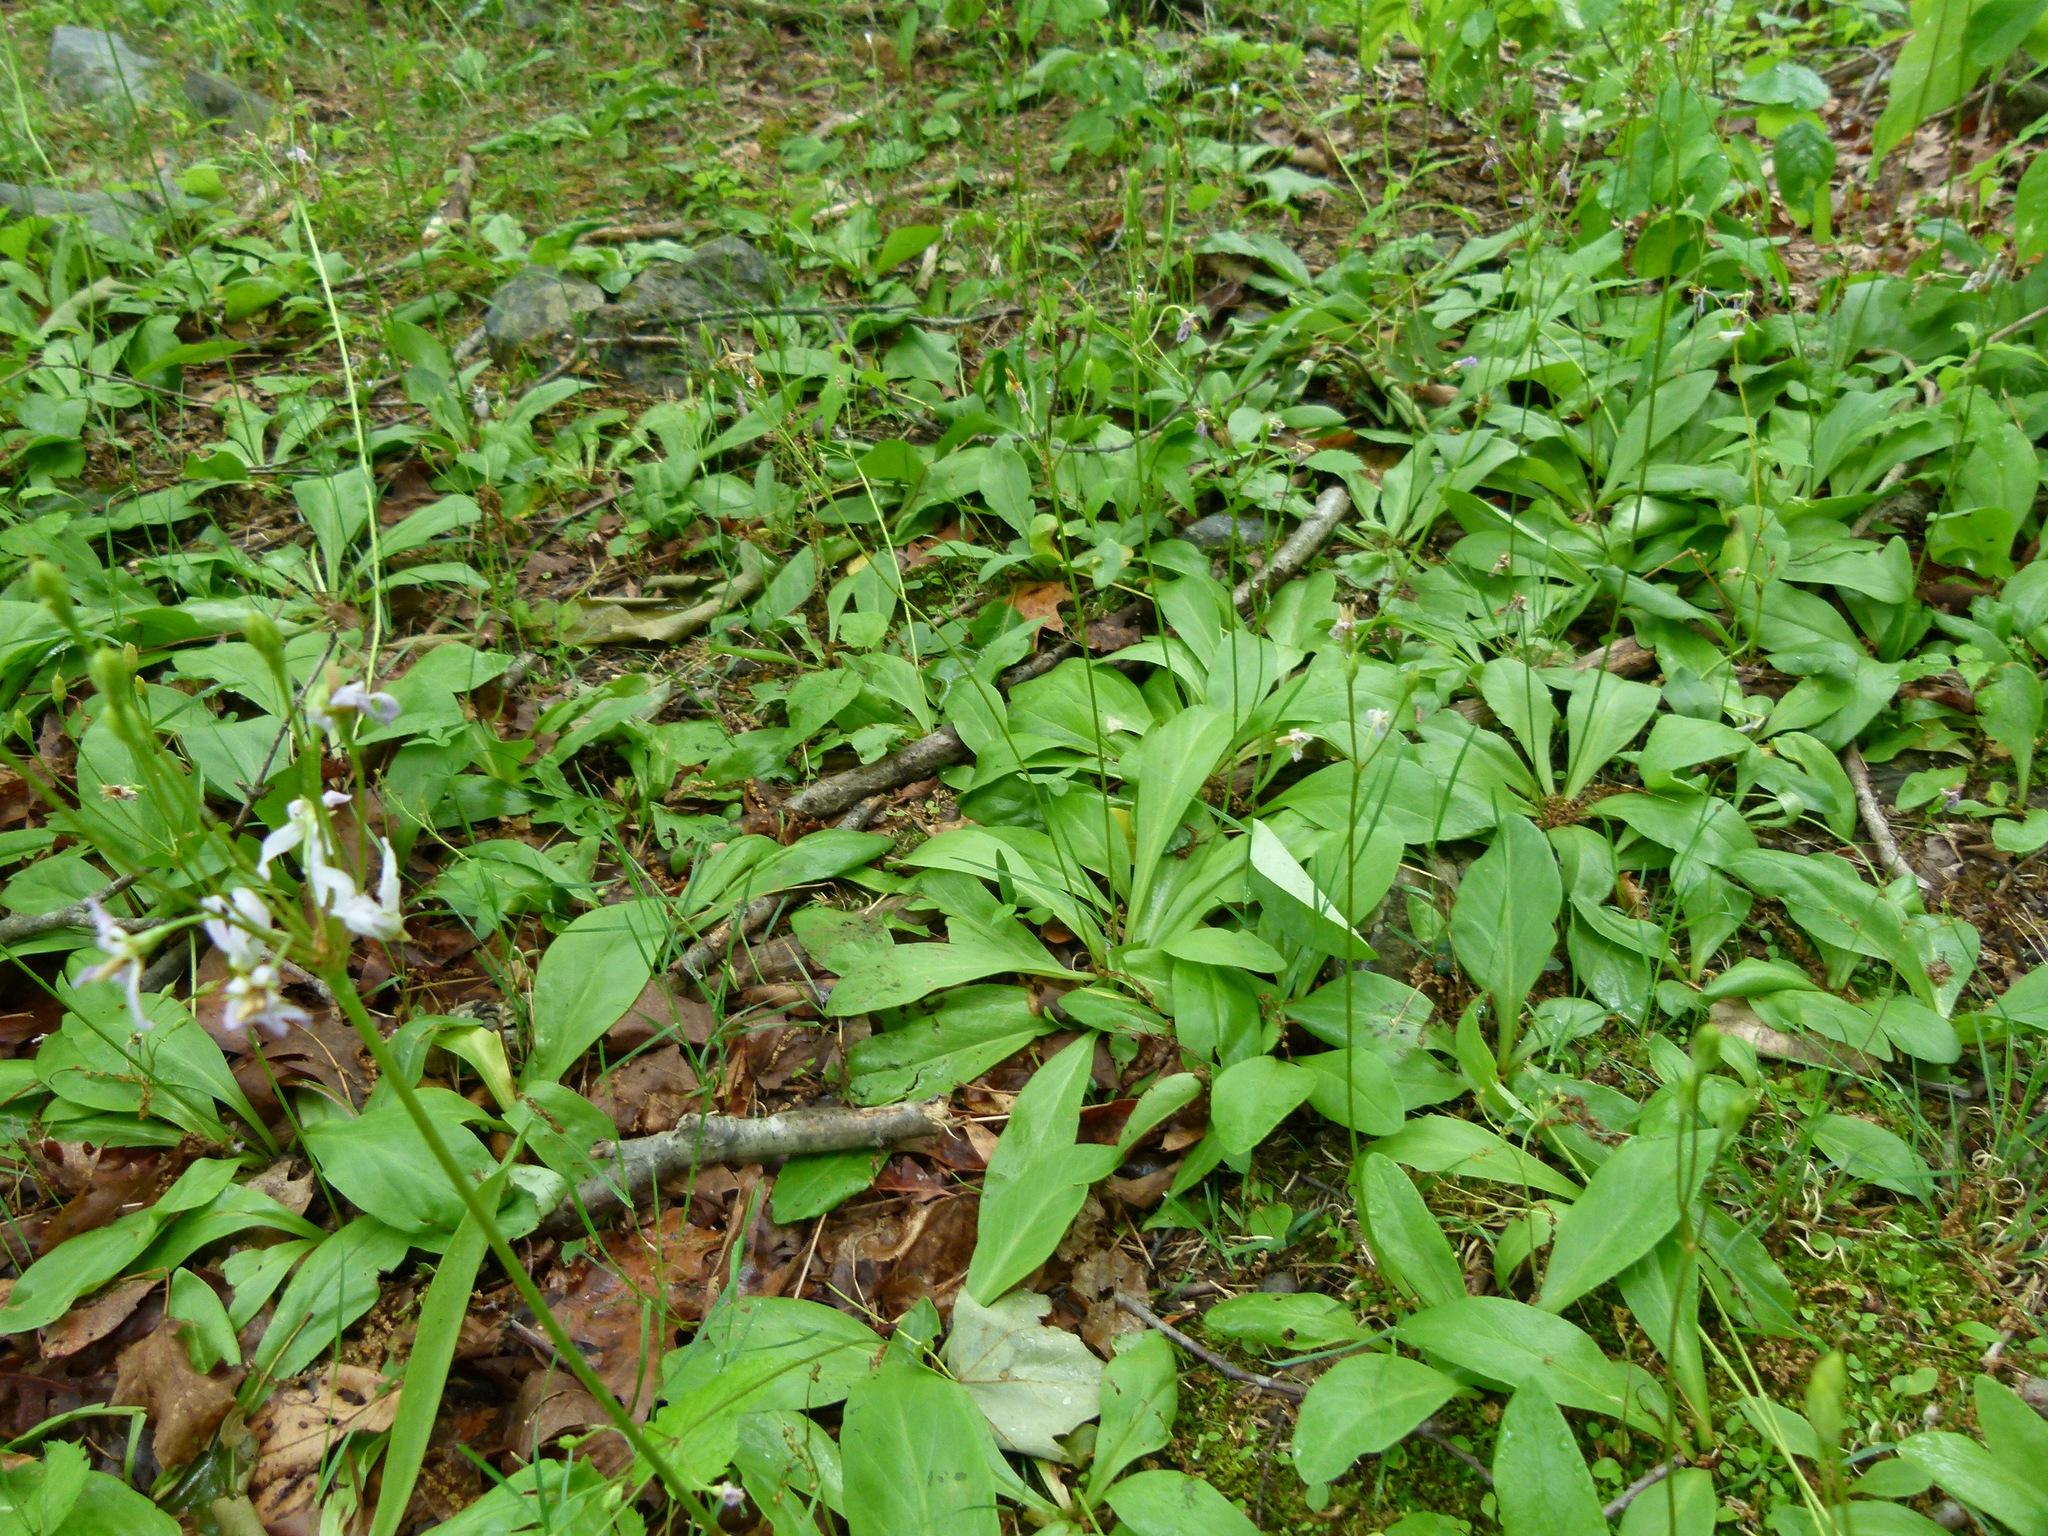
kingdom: Plantae
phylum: Tracheophyta
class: Magnoliopsida
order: Ericales
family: Primulaceae
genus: Dodecatheon
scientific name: Dodecatheon meadia
